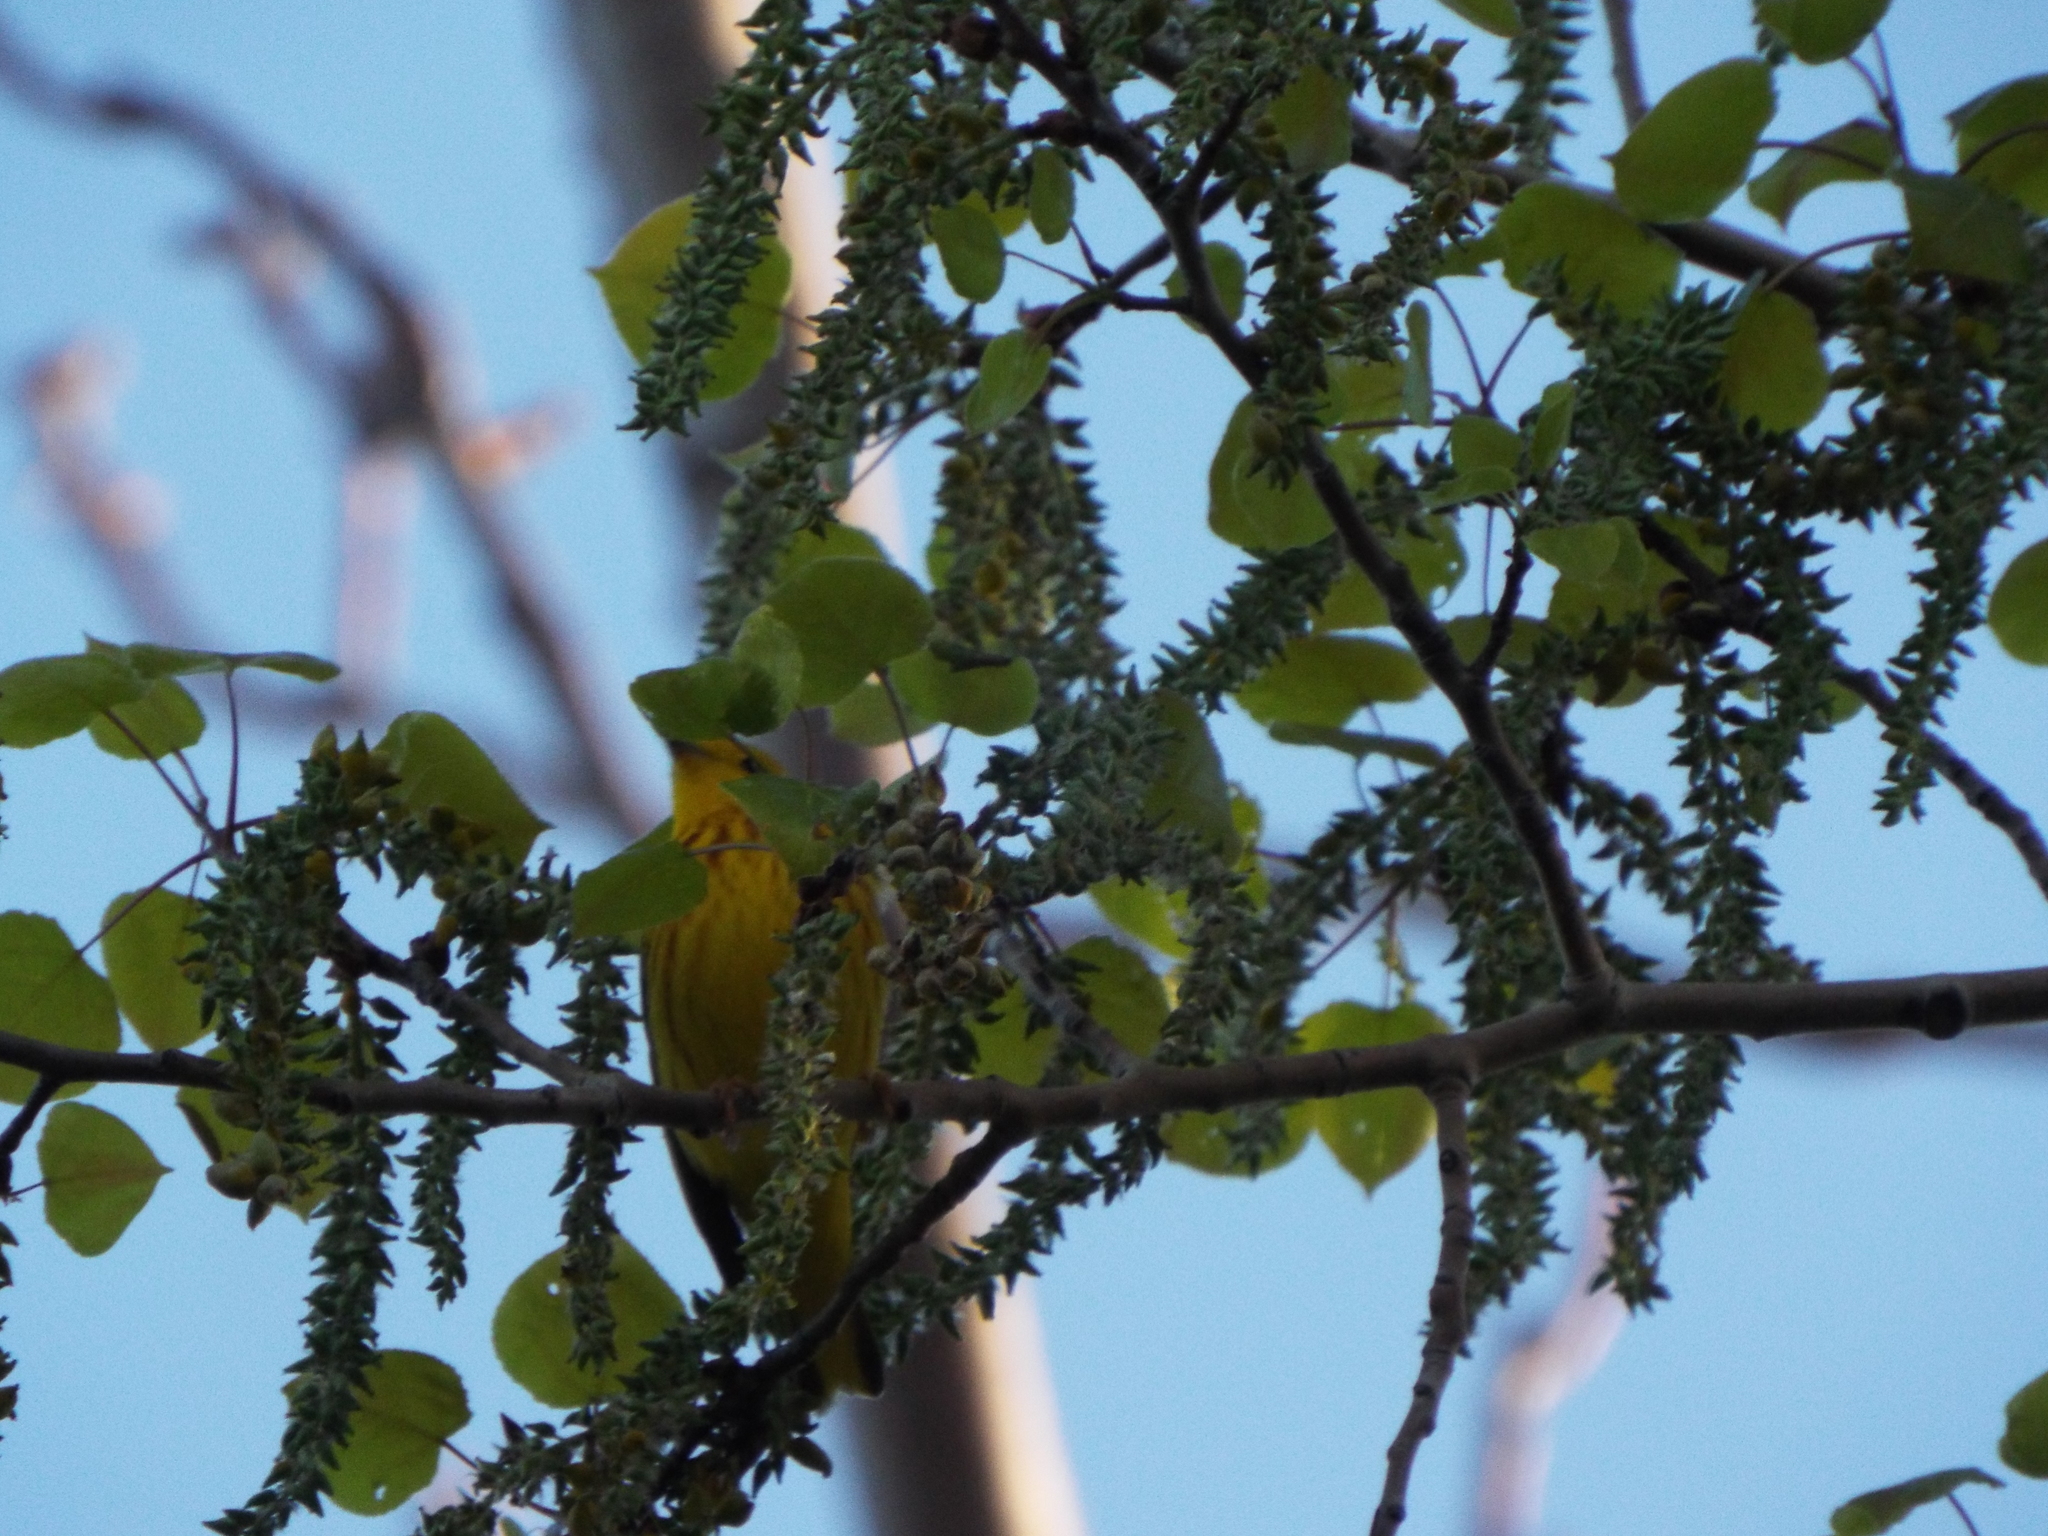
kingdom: Animalia
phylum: Chordata
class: Aves
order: Passeriformes
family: Parulidae
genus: Setophaga
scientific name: Setophaga petechia
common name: Yellow warbler
